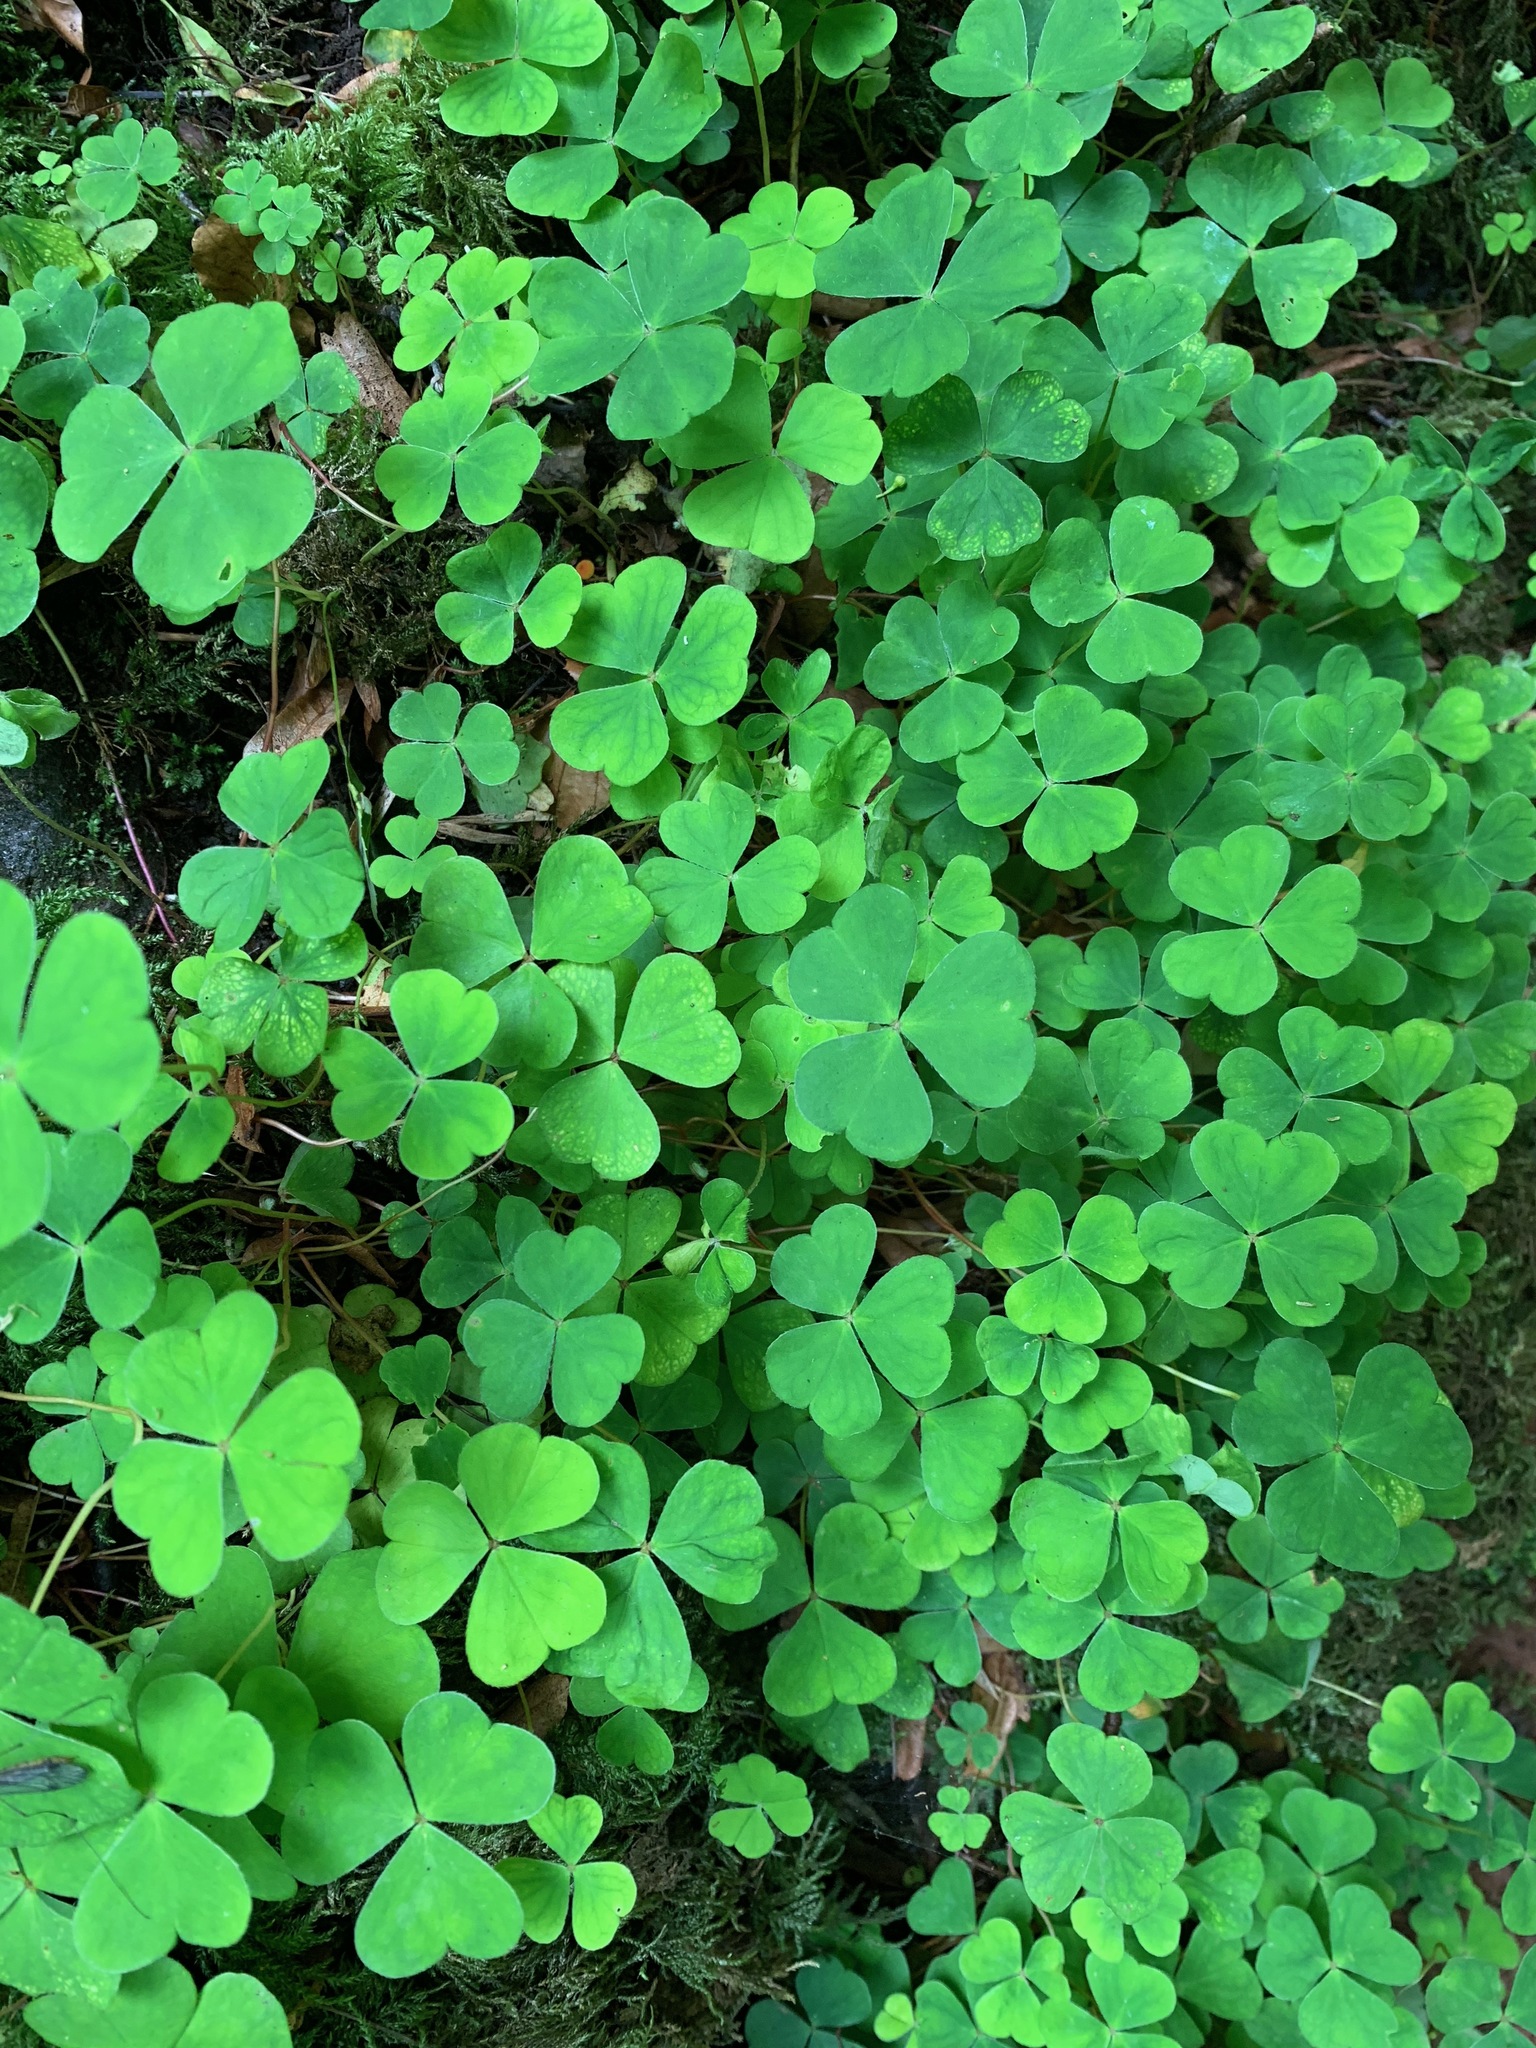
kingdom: Plantae
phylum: Tracheophyta
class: Magnoliopsida
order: Oxalidales
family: Oxalidaceae
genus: Oxalis
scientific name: Oxalis acetosella
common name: Wood-sorrel
